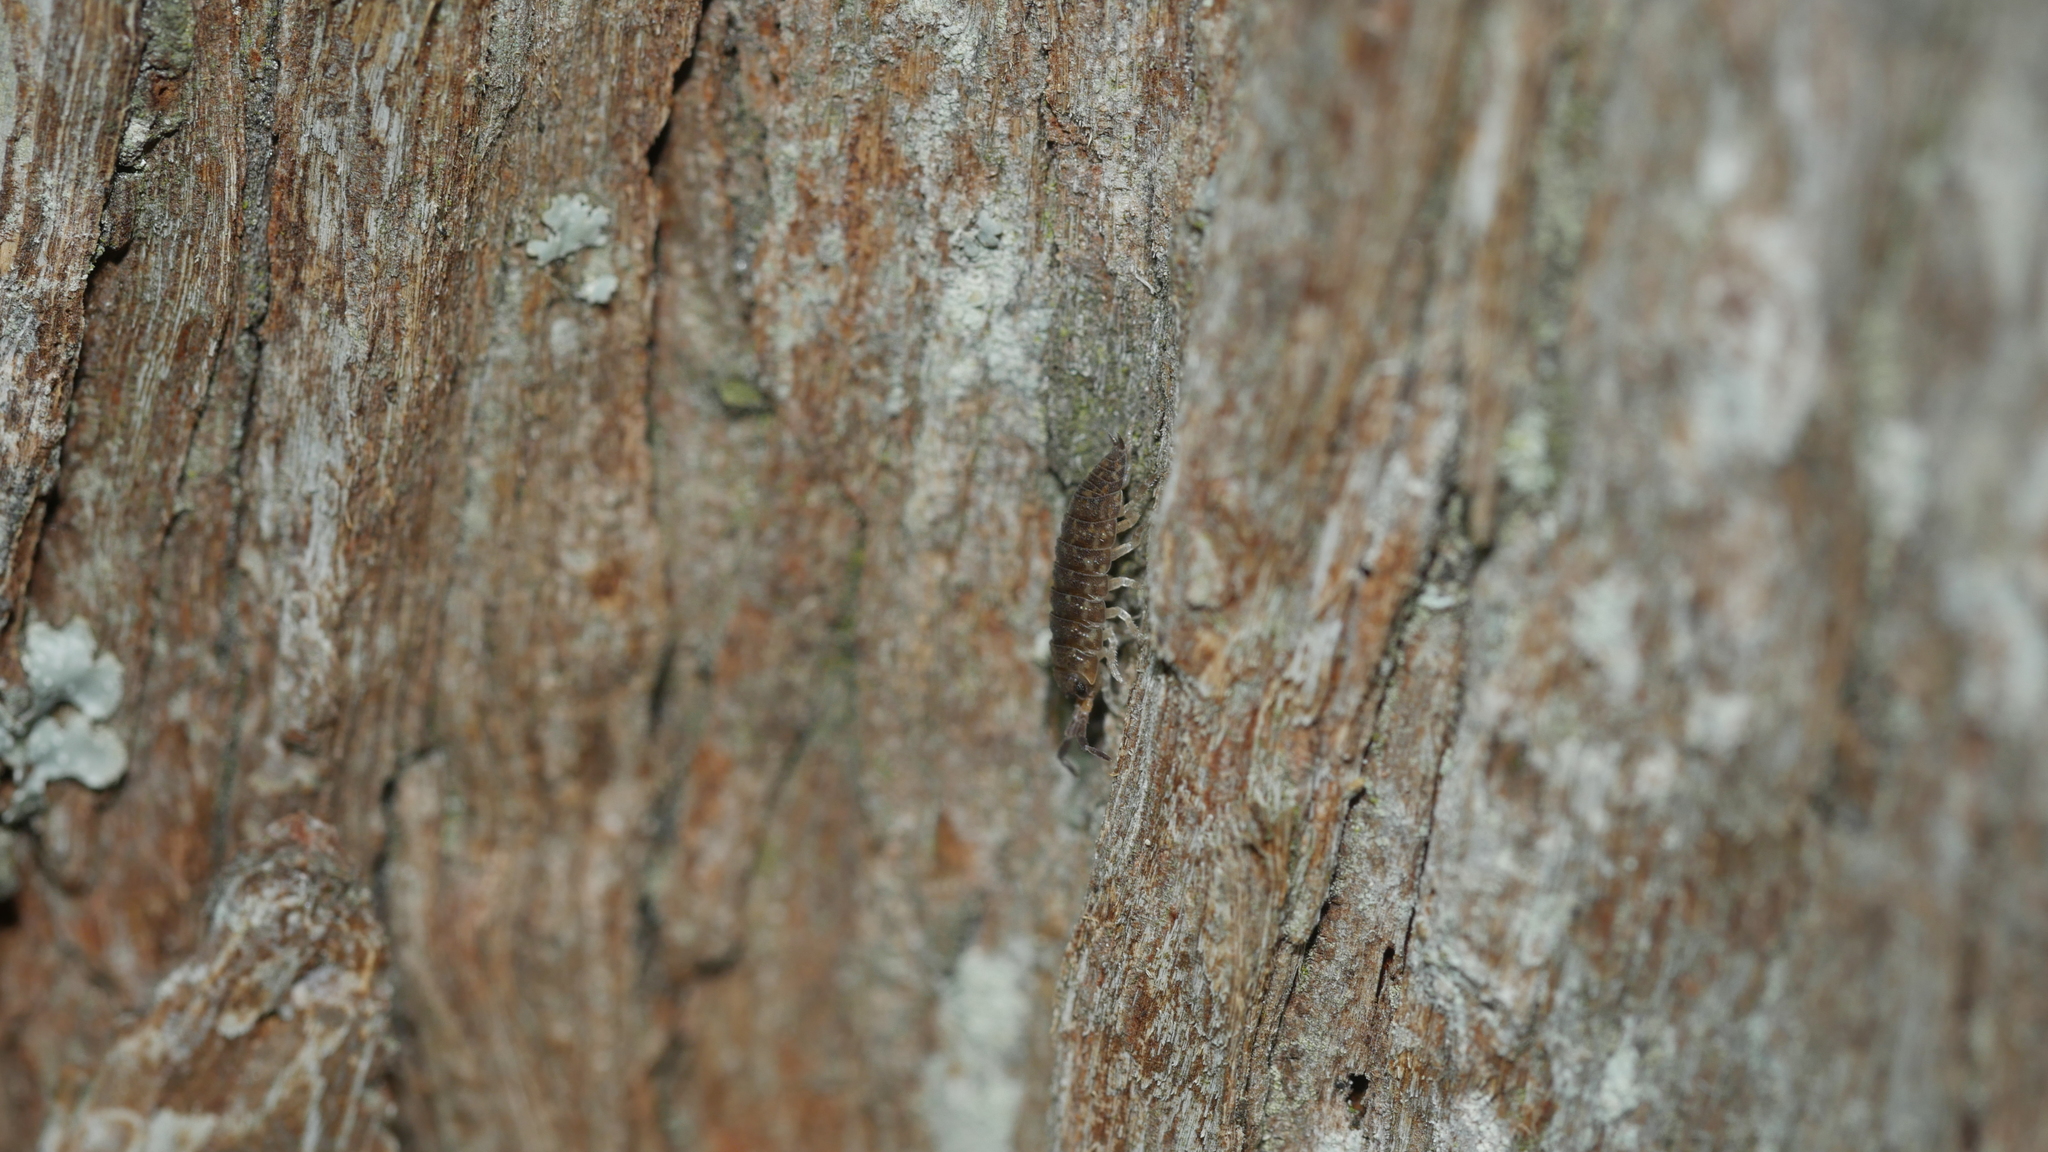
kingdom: Animalia
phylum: Arthropoda
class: Malacostraca
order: Isopoda
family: Porcellionidae
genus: Porcellio
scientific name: Porcellio scaber
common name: Common rough woodlouse
